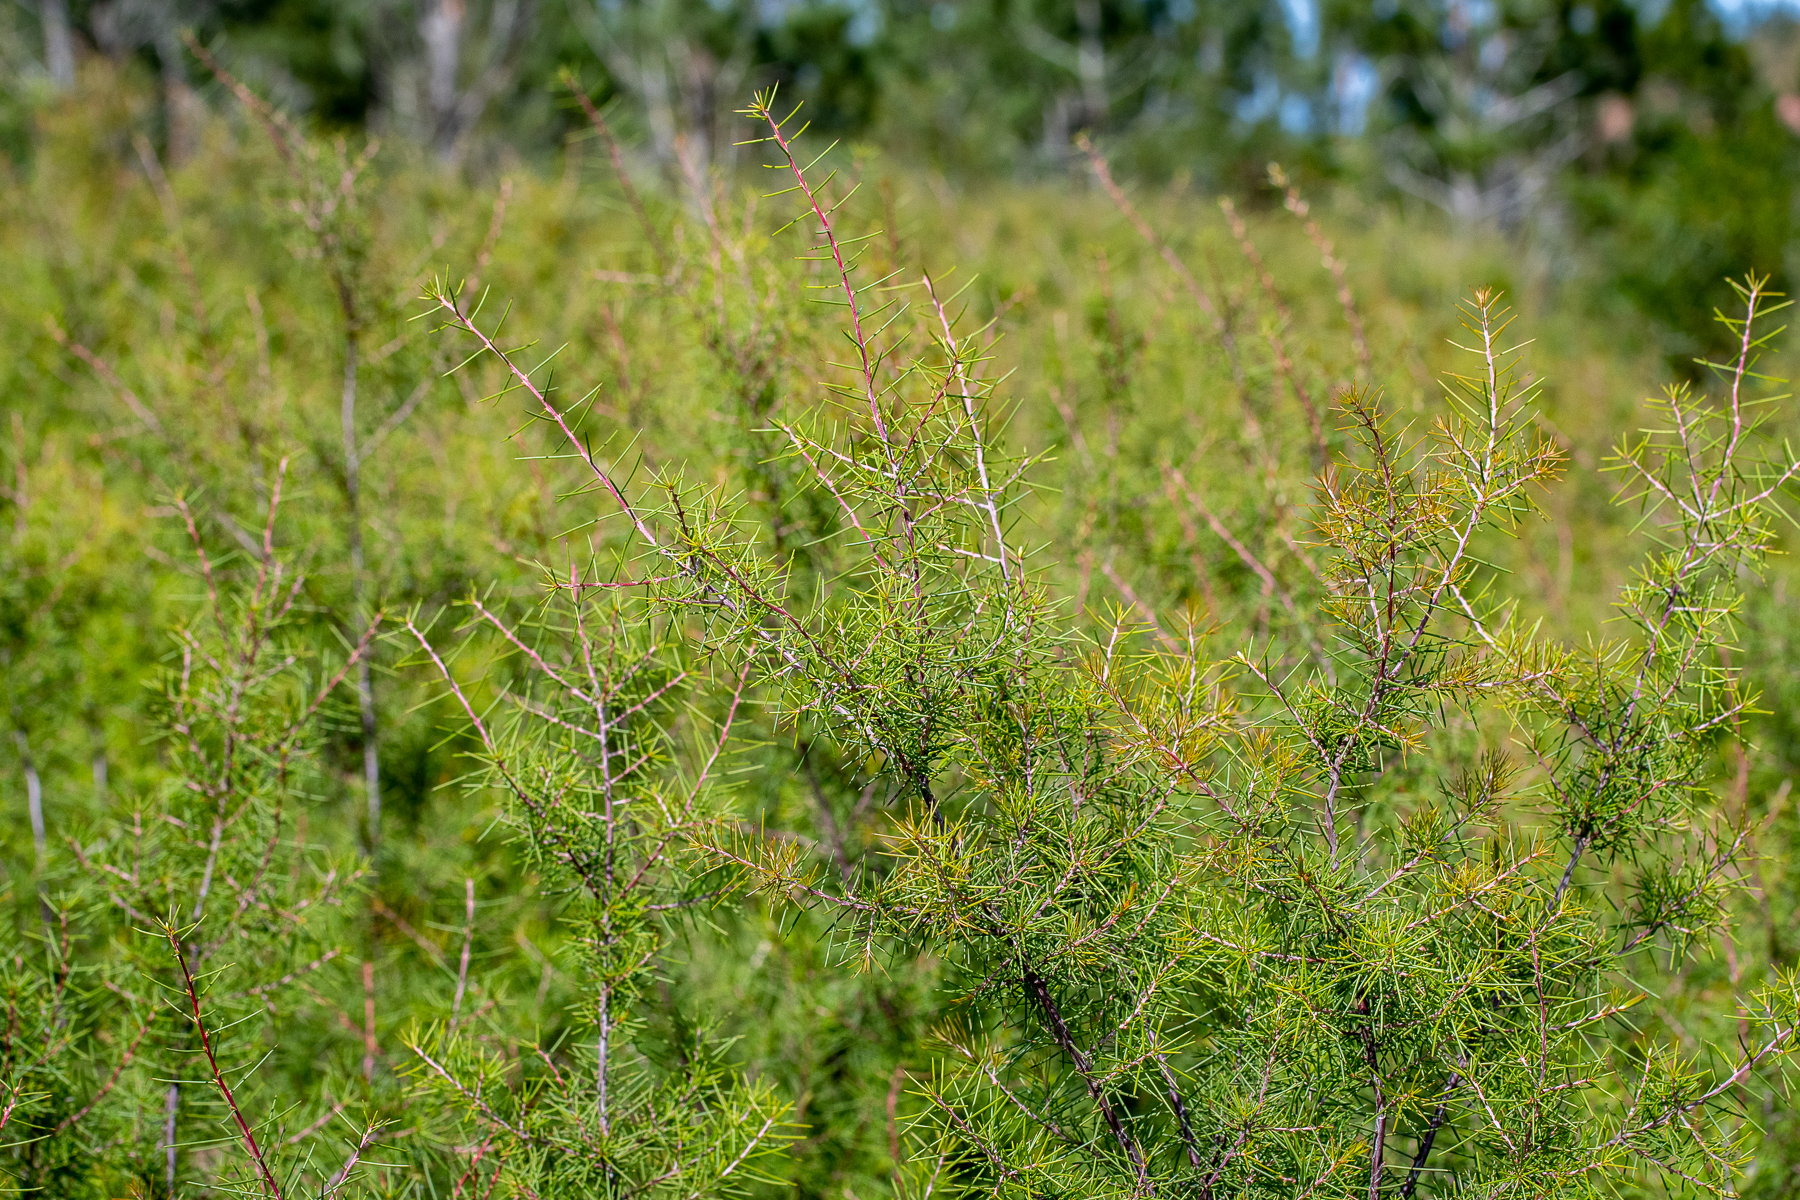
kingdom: Plantae
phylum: Tracheophyta
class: Magnoliopsida
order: Proteales
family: Proteaceae
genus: Hakea
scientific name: Hakea sericea
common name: Needle bush
